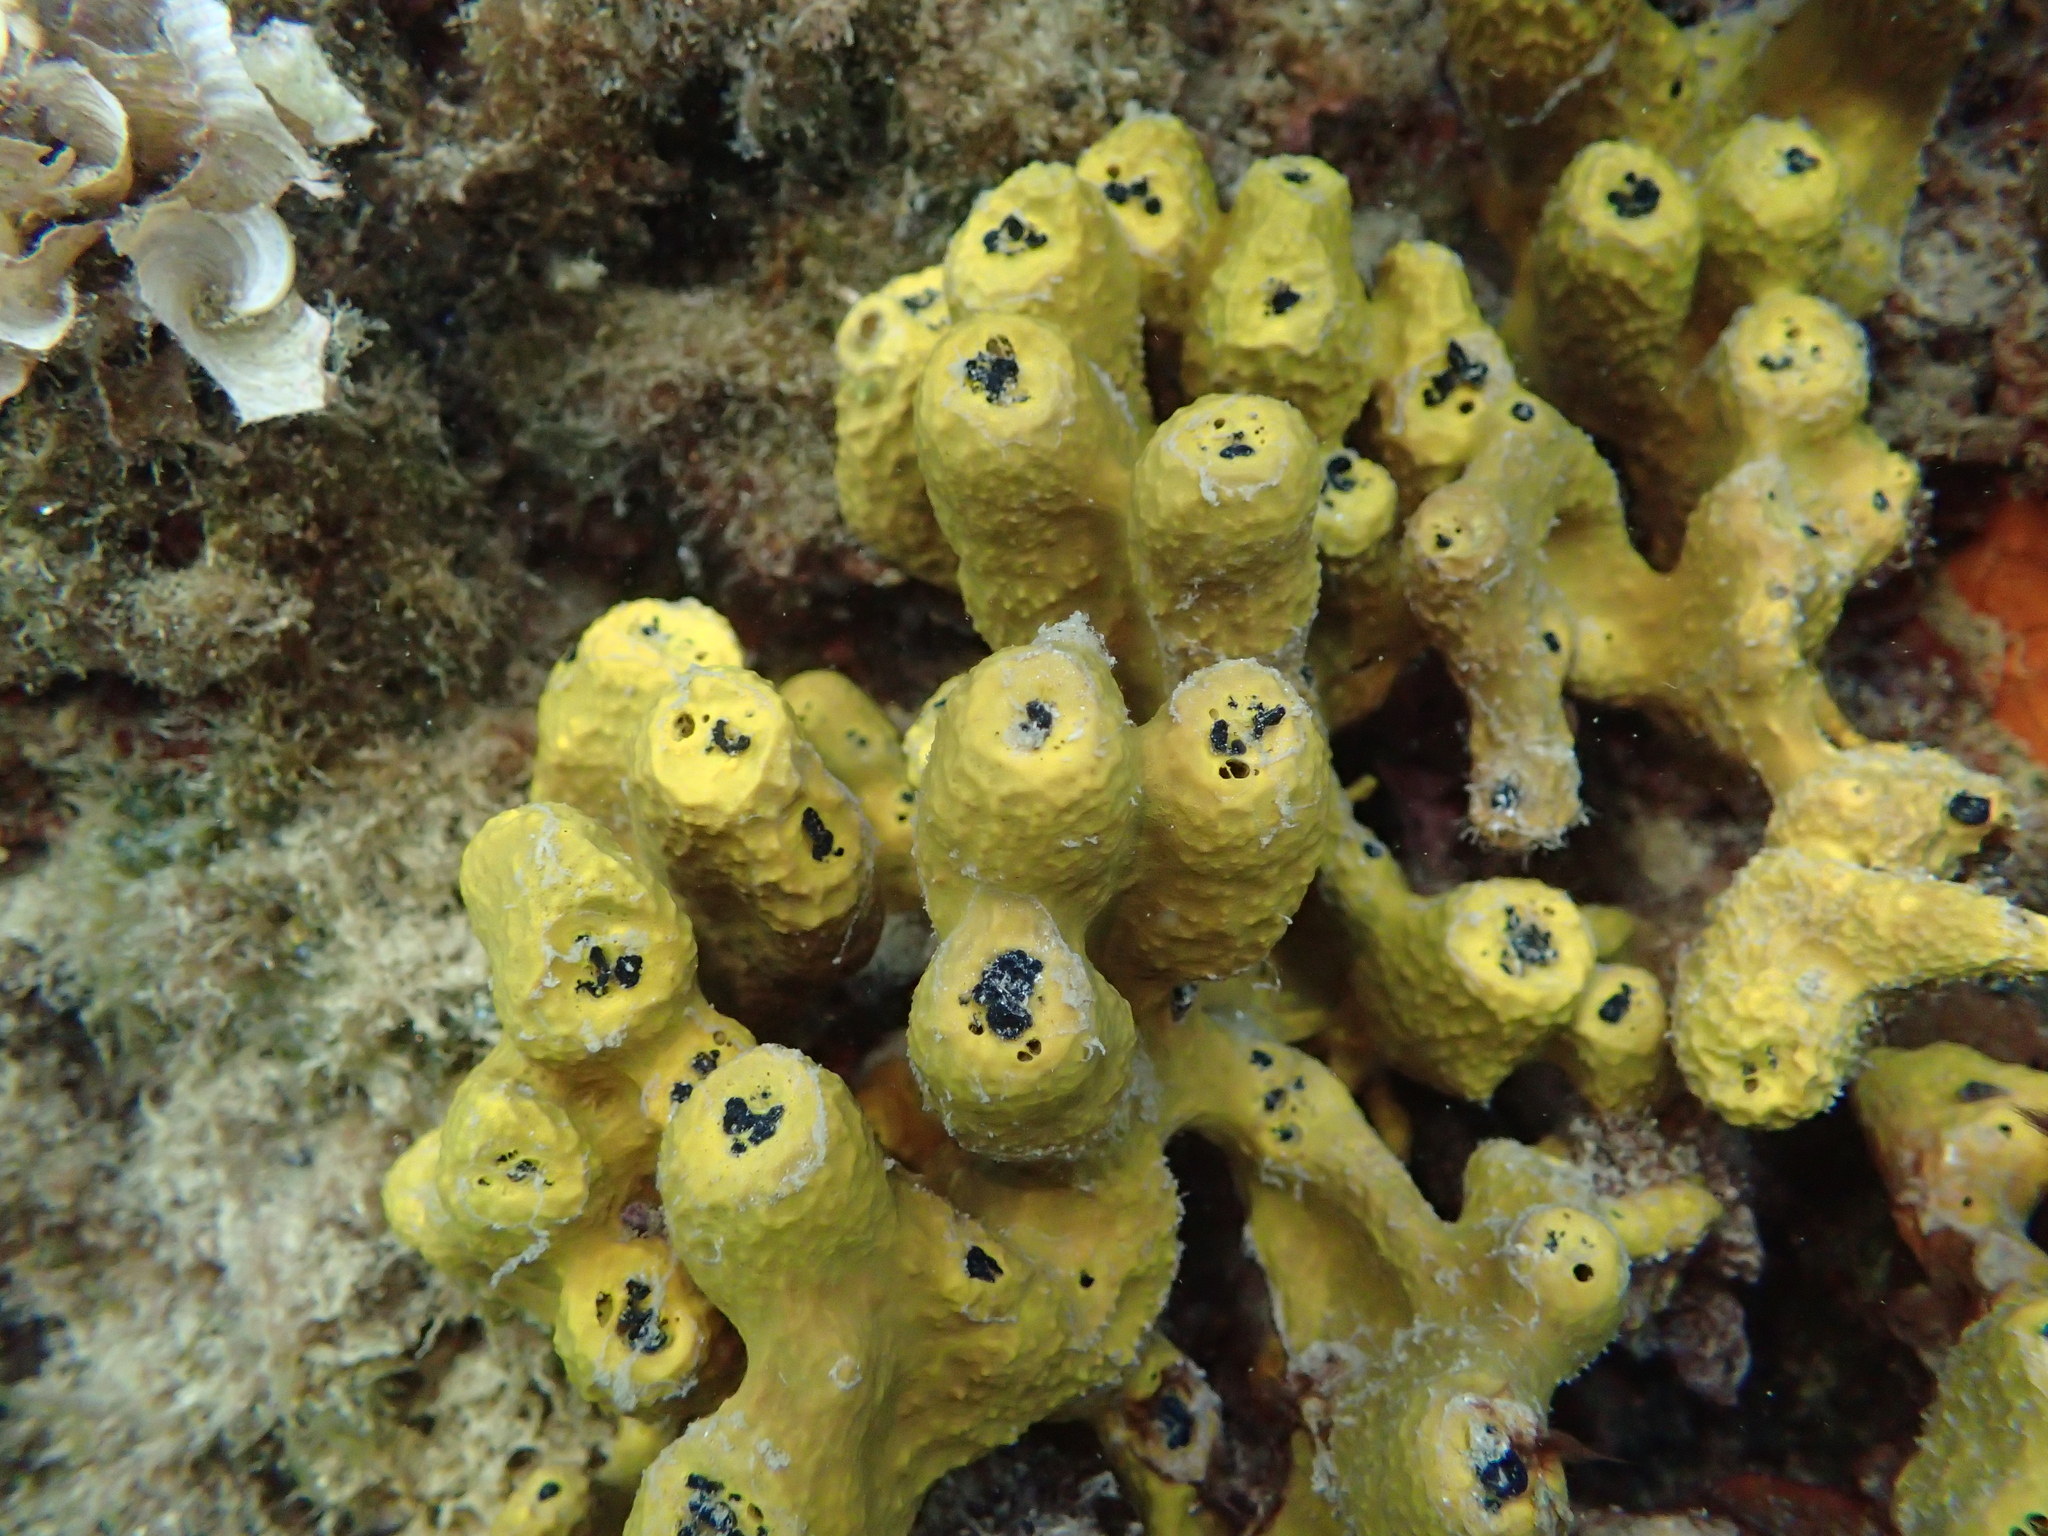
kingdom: Animalia
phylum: Porifera
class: Demospongiae
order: Verongiida
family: Aplysinidae
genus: Aplysina
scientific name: Aplysina aerophoba
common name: Aureate sponge
